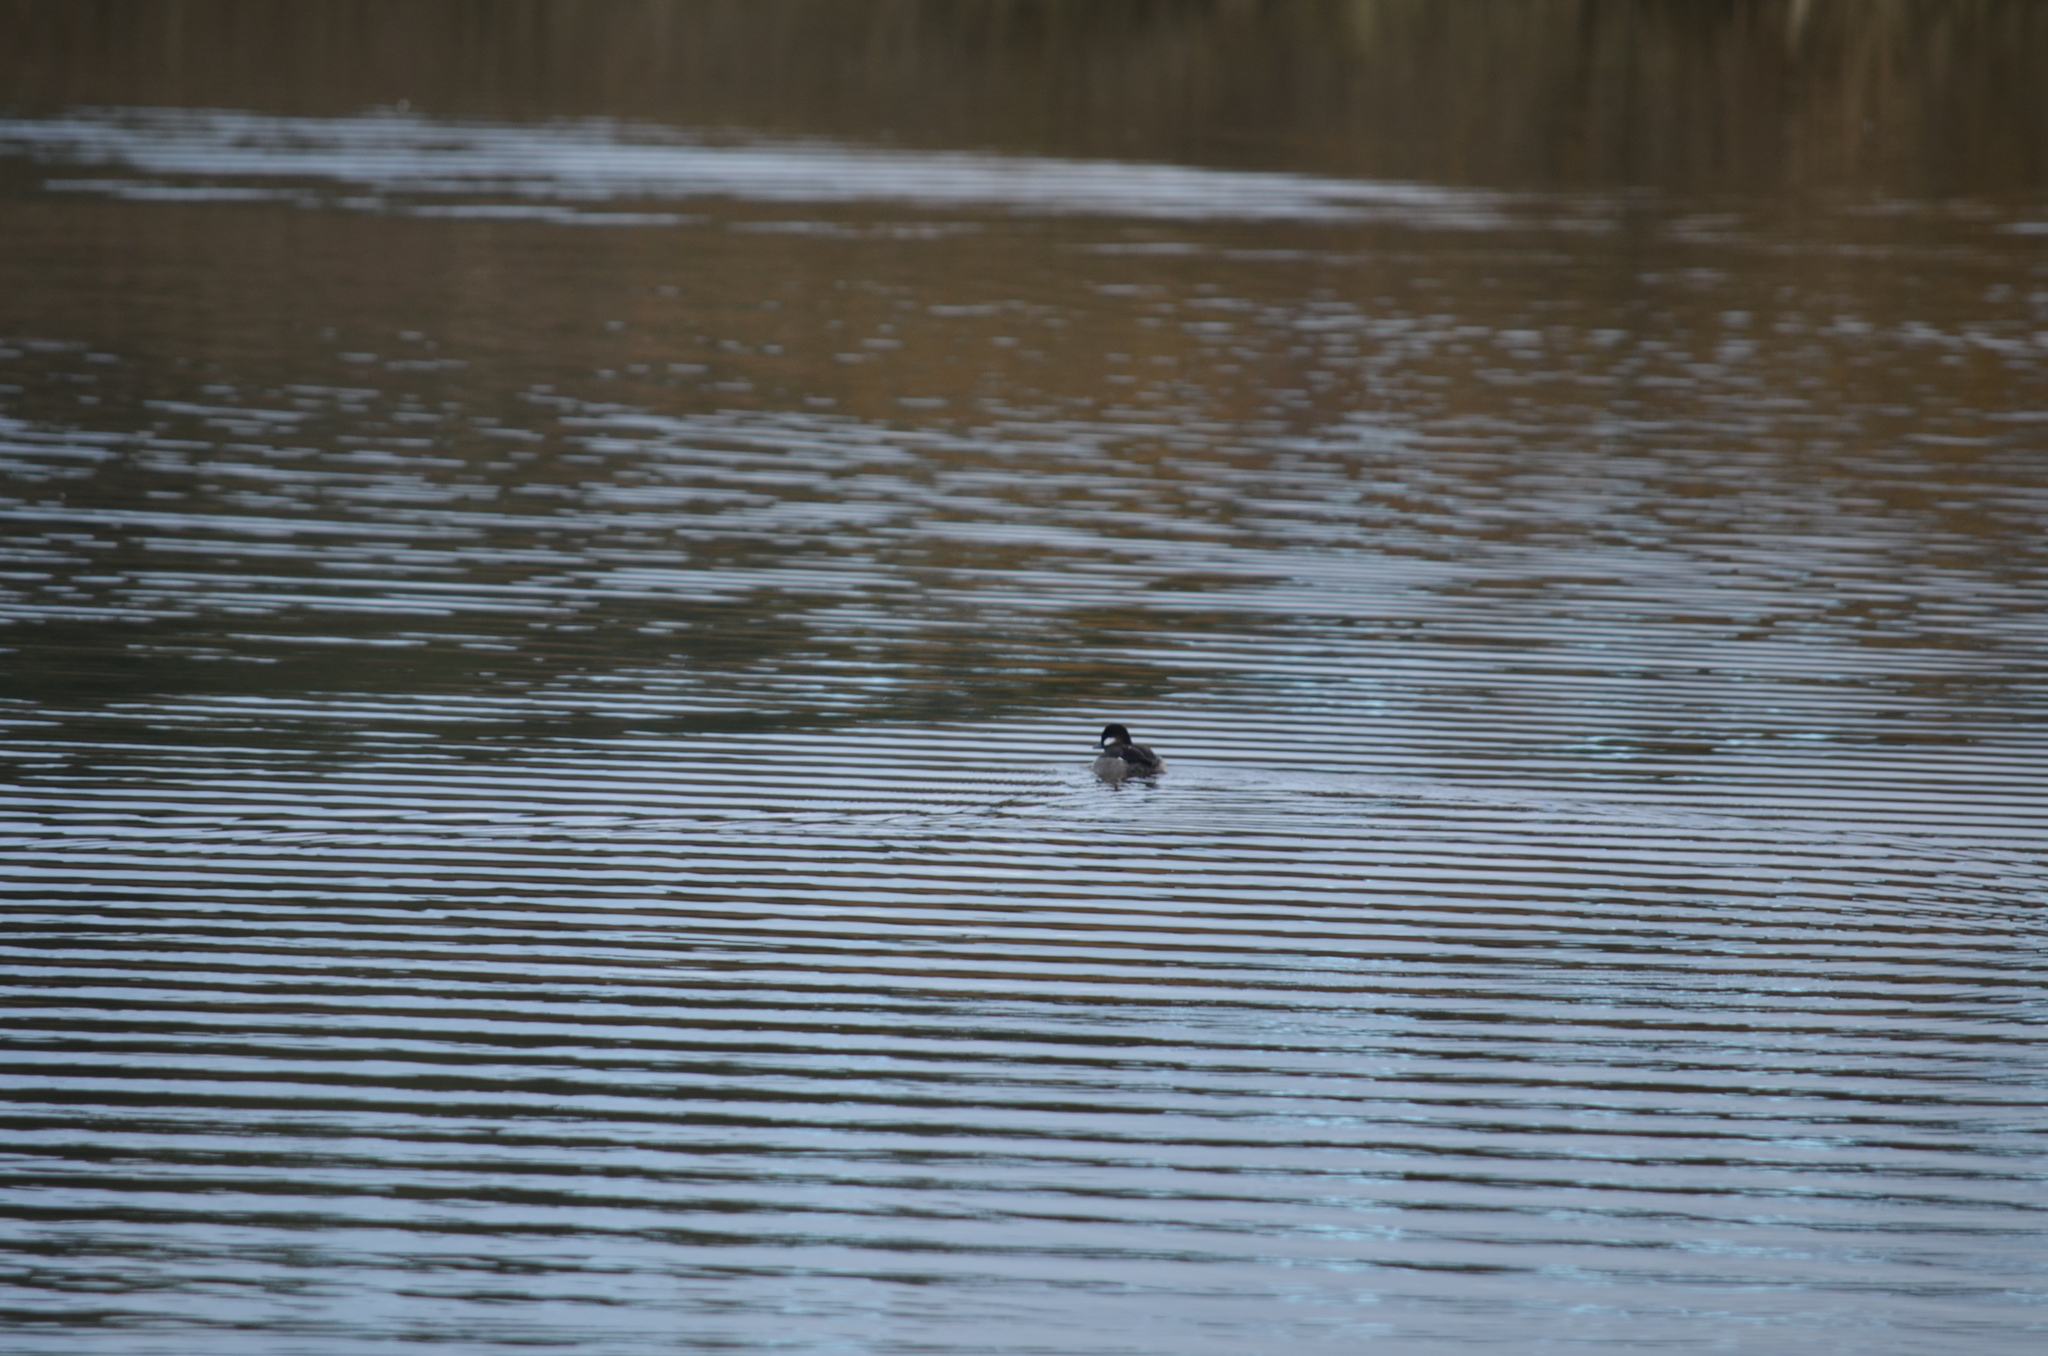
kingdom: Animalia
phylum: Chordata
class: Aves
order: Anseriformes
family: Anatidae
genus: Bucephala
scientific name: Bucephala albeola
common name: Bufflehead
